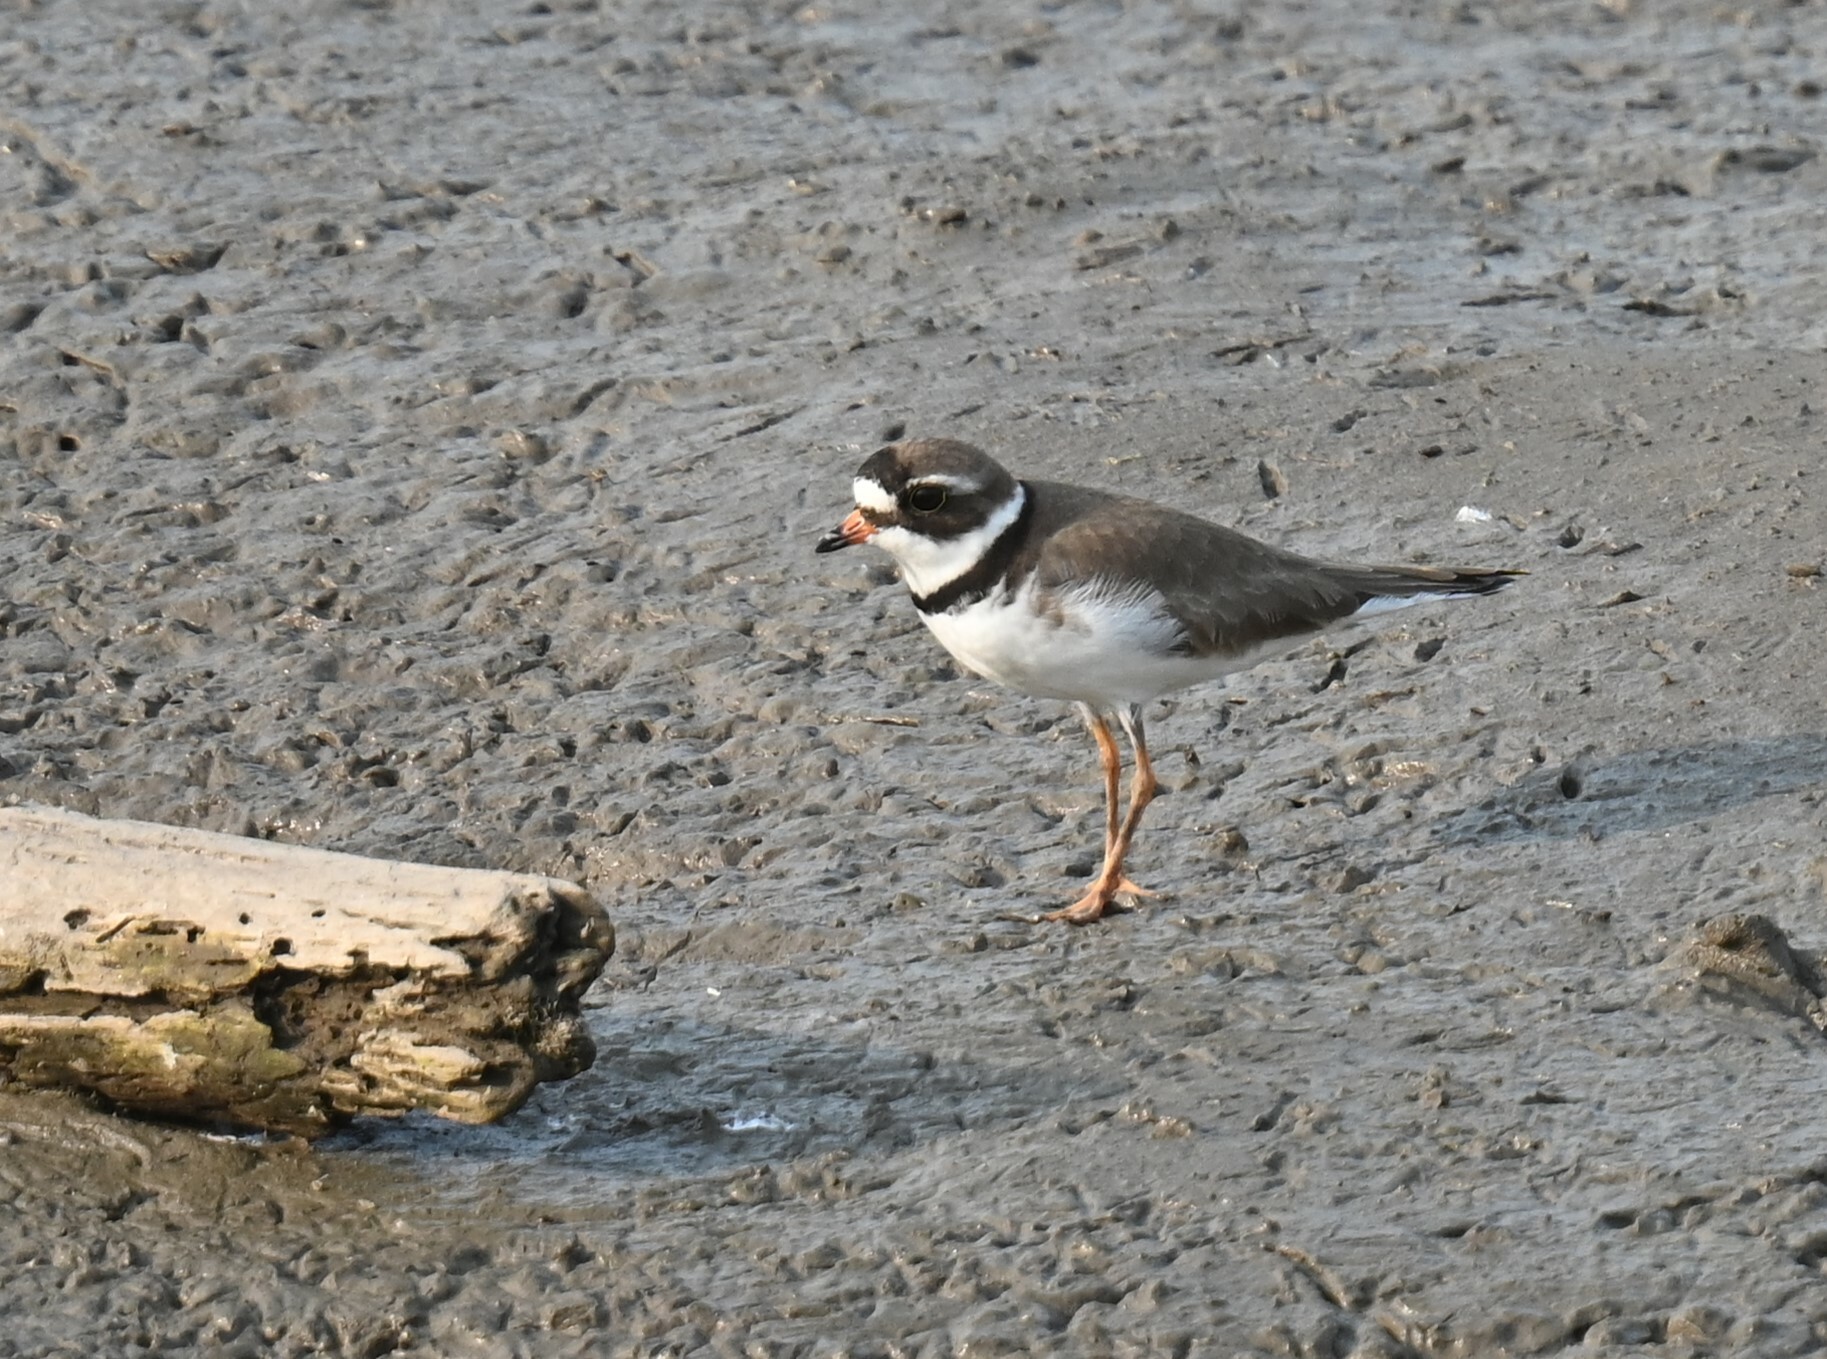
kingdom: Animalia
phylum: Chordata
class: Aves
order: Charadriiformes
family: Charadriidae
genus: Charadrius
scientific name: Charadrius semipalmatus
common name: Semipalmated plover
